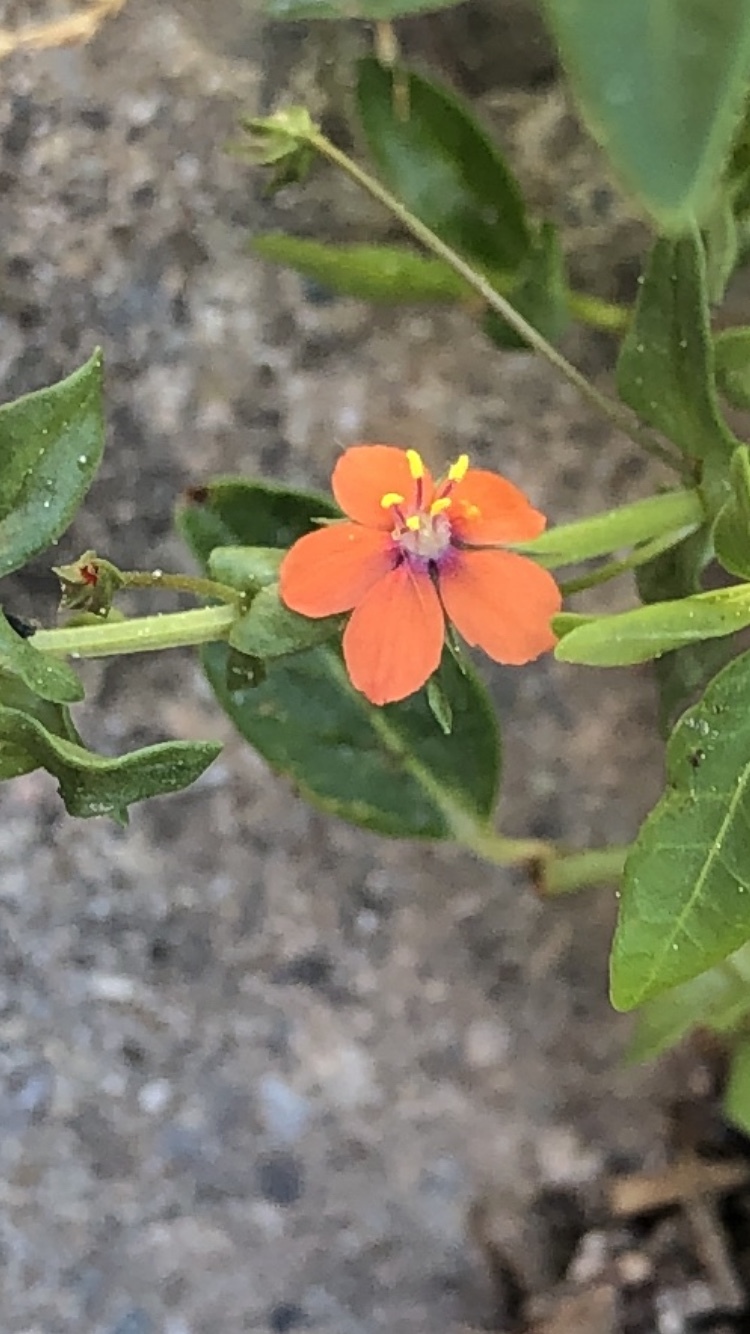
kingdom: Plantae
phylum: Tracheophyta
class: Magnoliopsida
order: Ericales
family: Primulaceae
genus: Lysimachia
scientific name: Lysimachia arvensis
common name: Scarlet pimpernel
